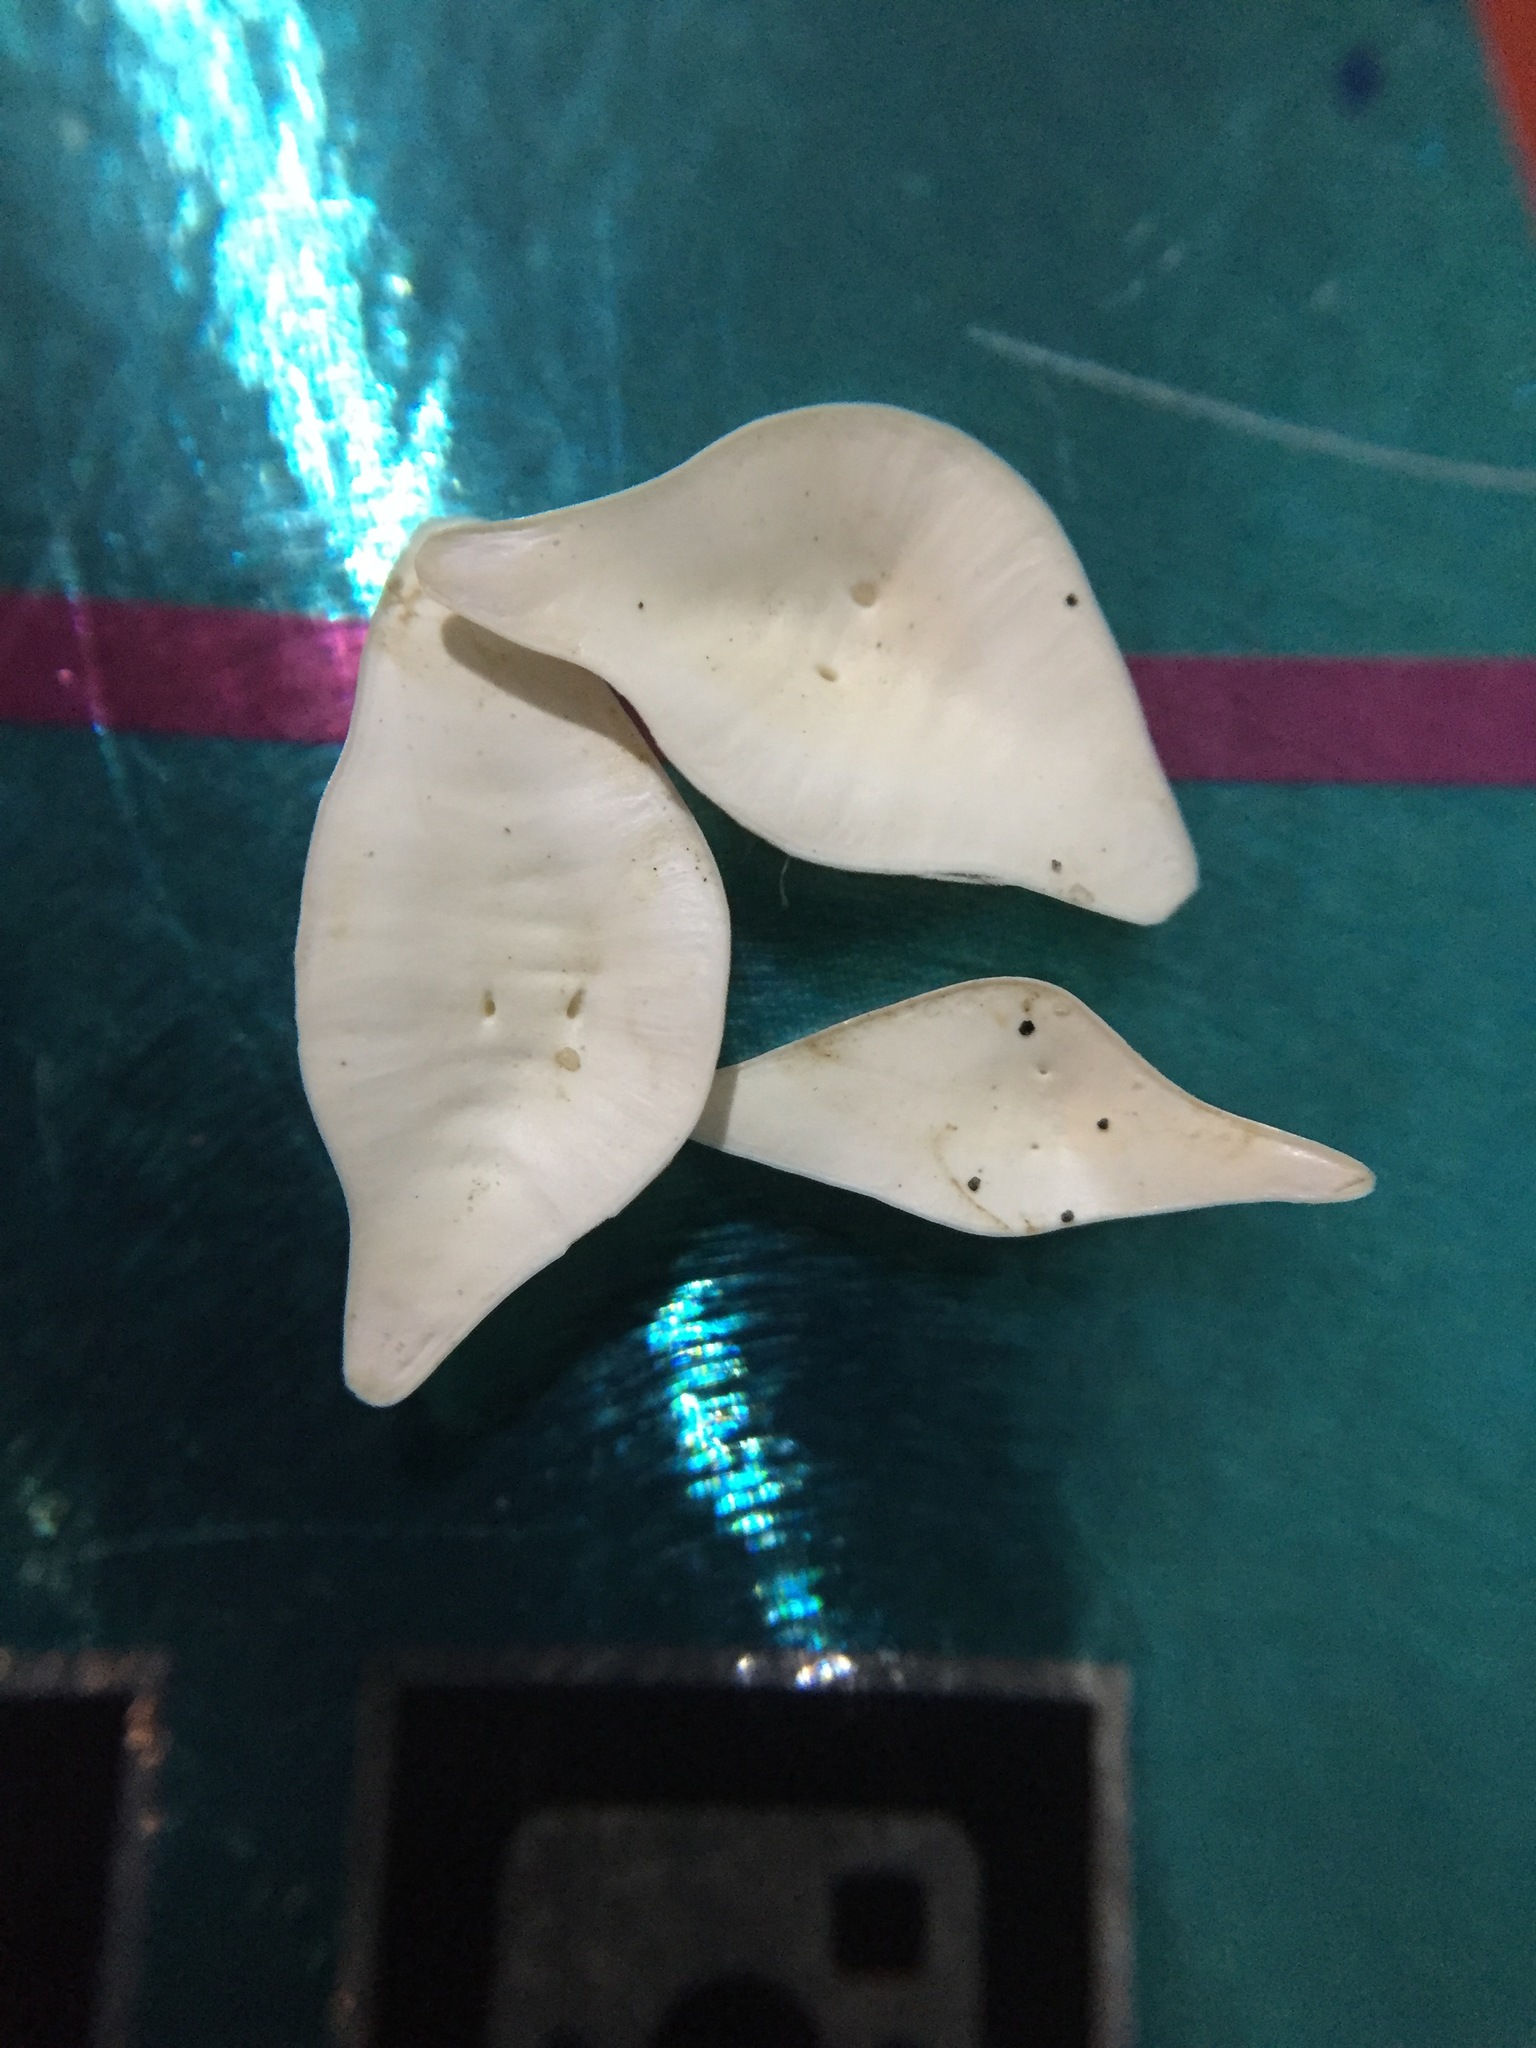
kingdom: Animalia
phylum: Mollusca
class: Gastropoda
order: Cephalaspidea
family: Philinidae
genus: Philine
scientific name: Philine angasi
